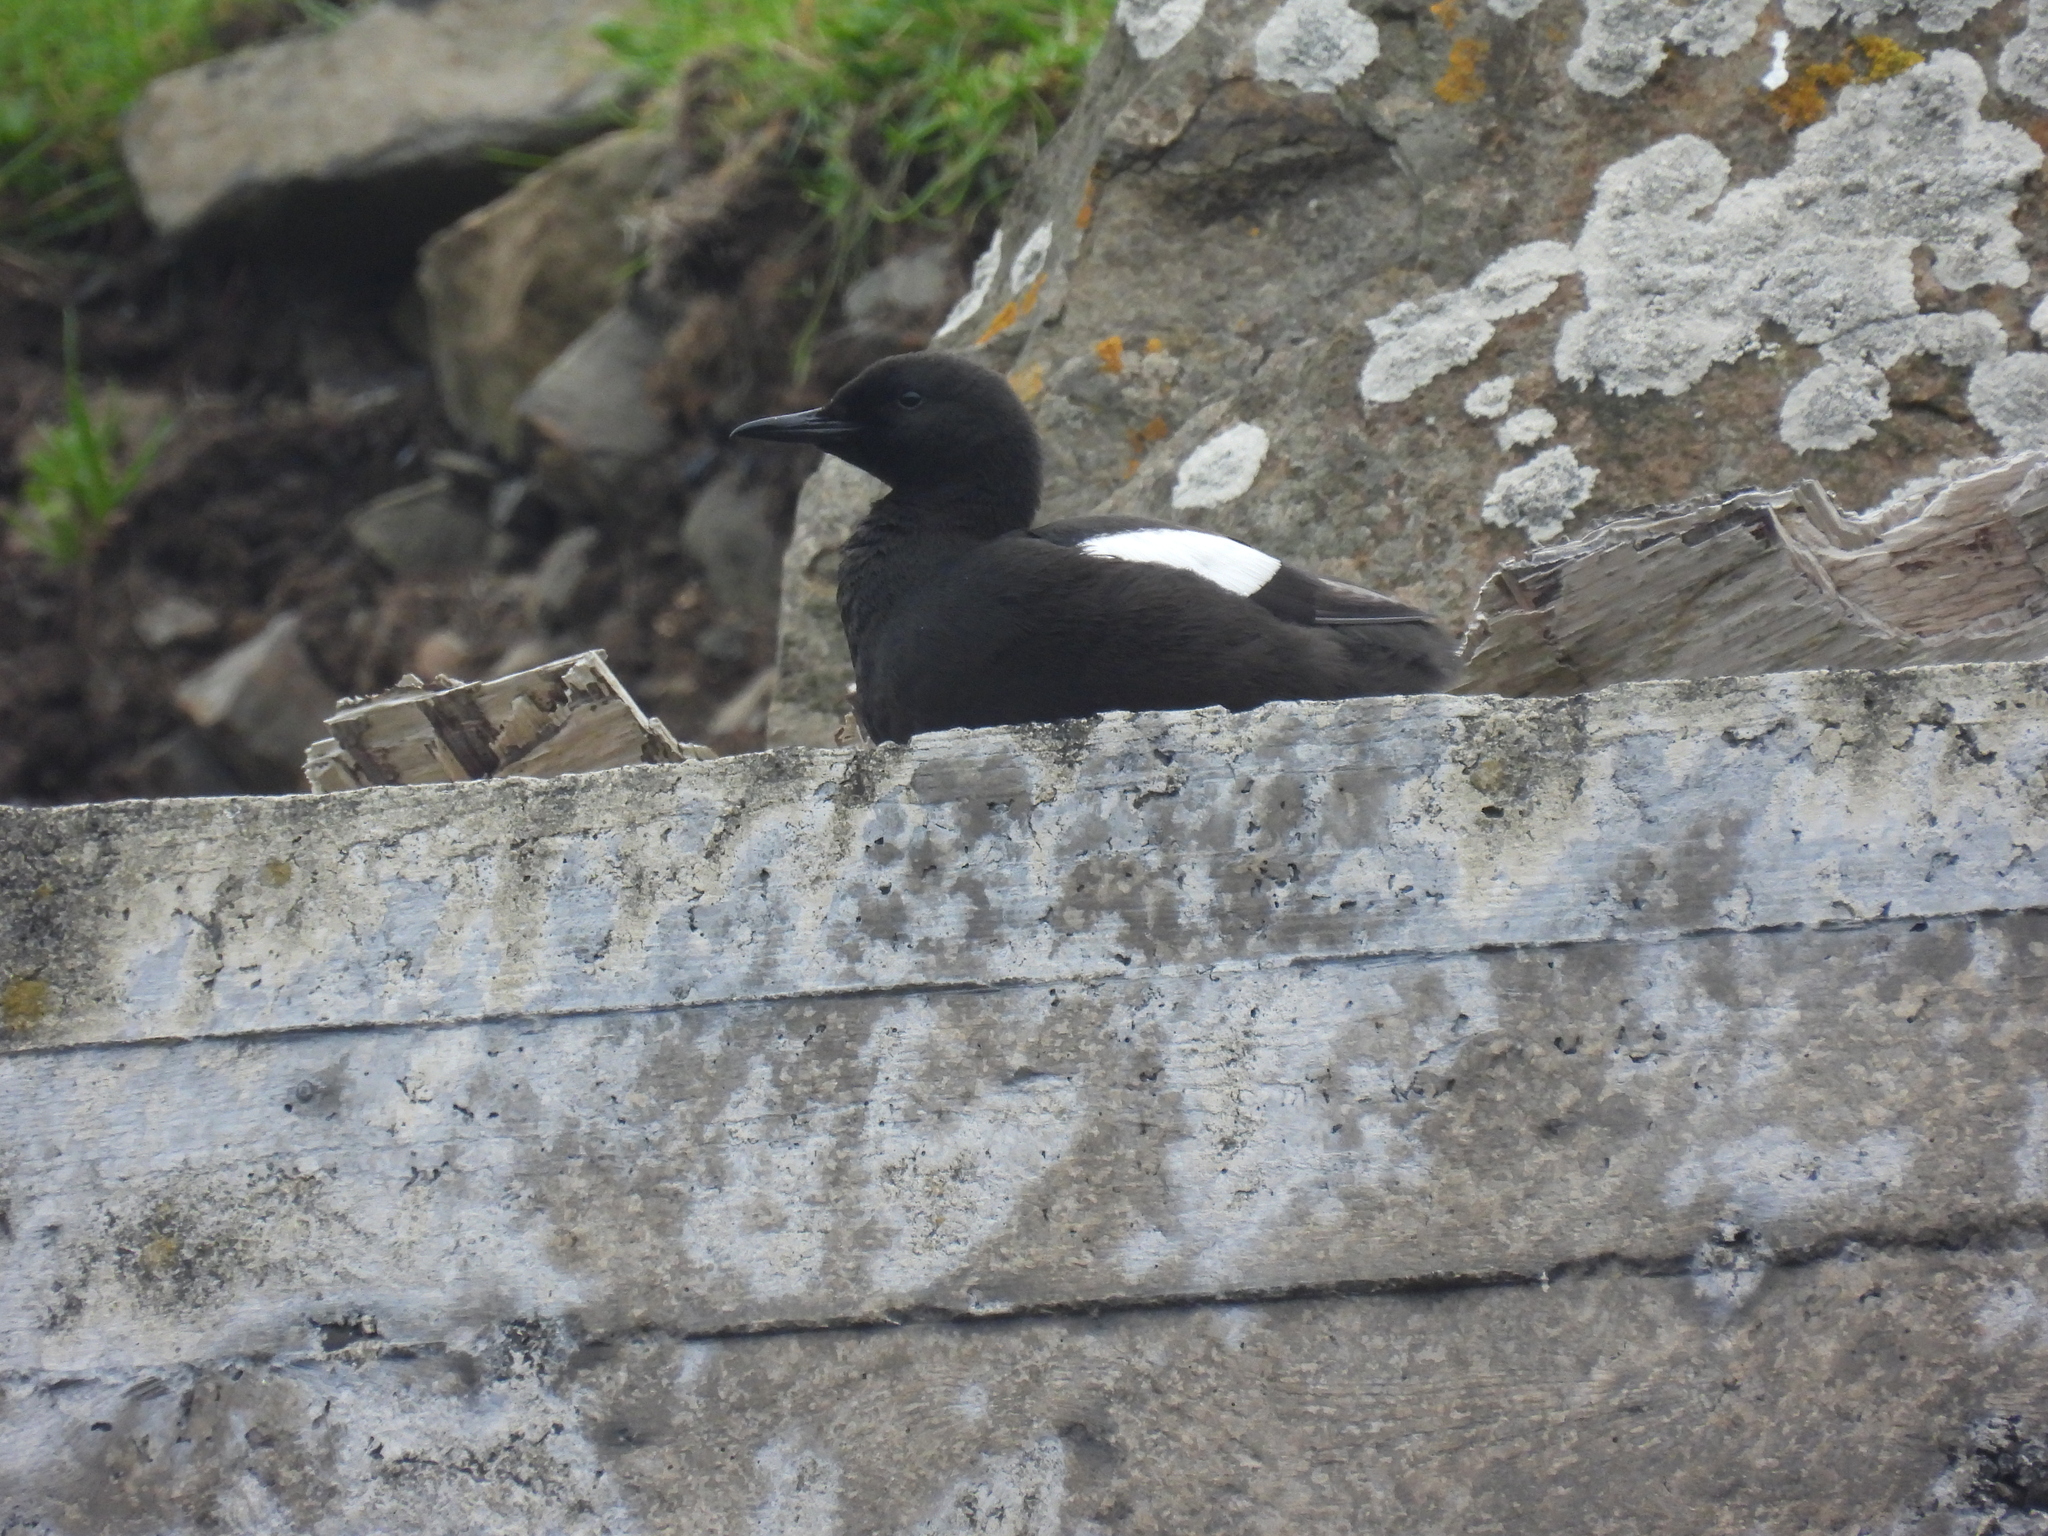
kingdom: Animalia
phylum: Chordata
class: Aves
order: Charadriiformes
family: Alcidae
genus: Cepphus
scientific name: Cepphus grylle
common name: Black guillemot
